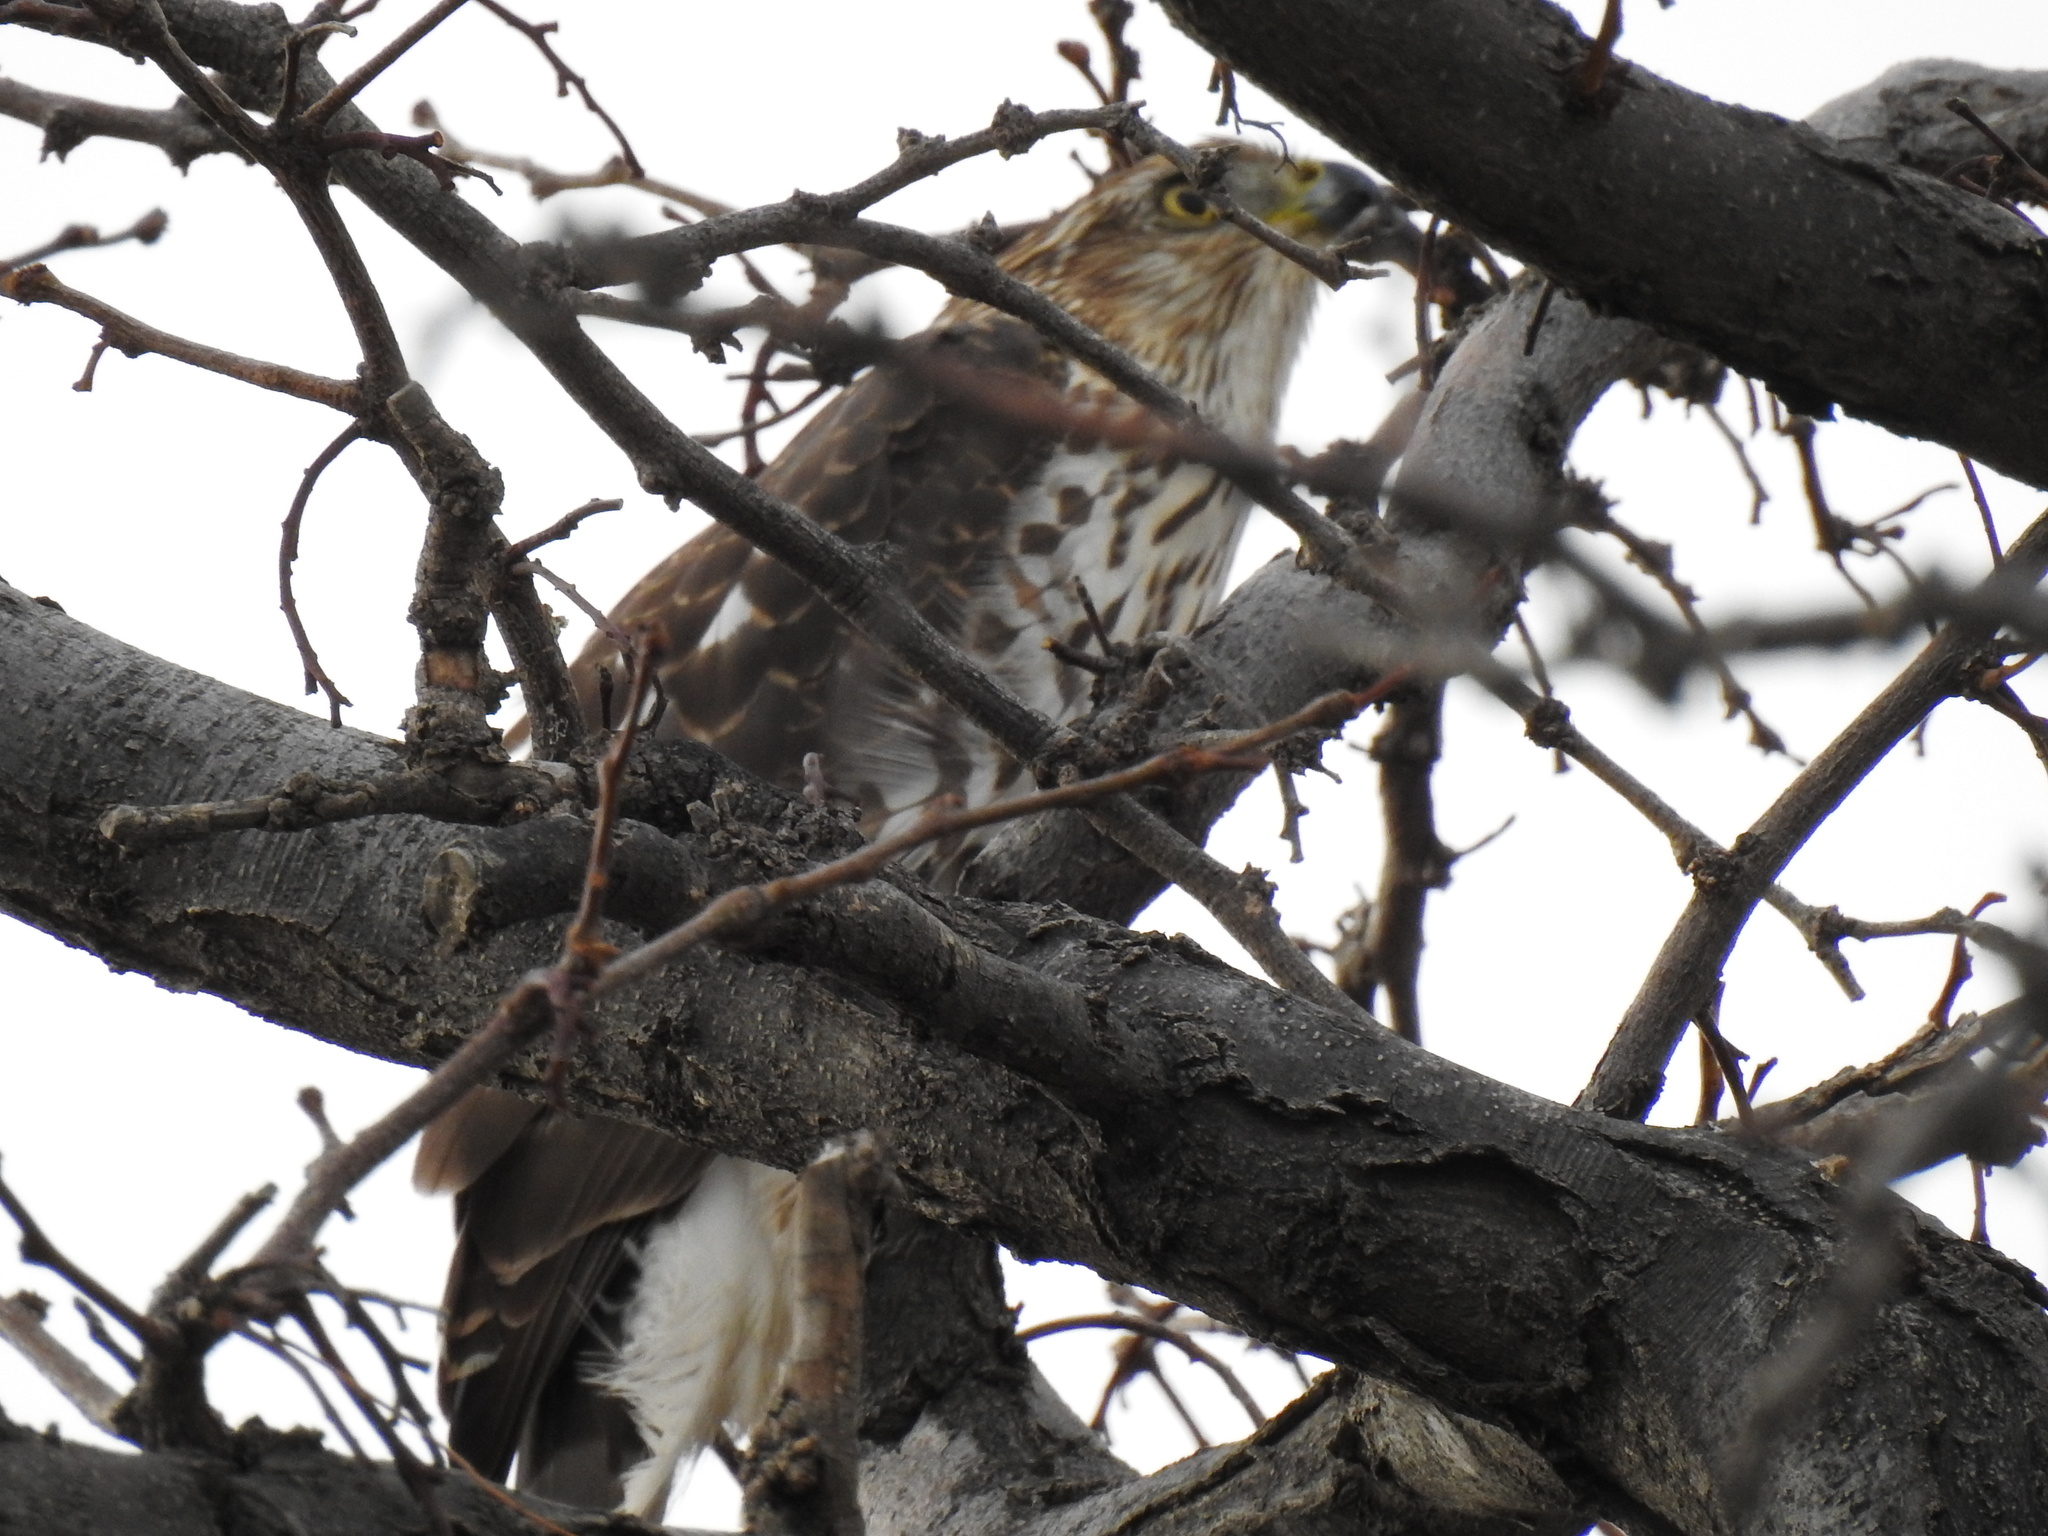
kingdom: Animalia
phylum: Chordata
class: Aves
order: Accipitriformes
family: Accipitridae
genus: Accipiter
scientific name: Accipiter cooperii
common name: Cooper's hawk
